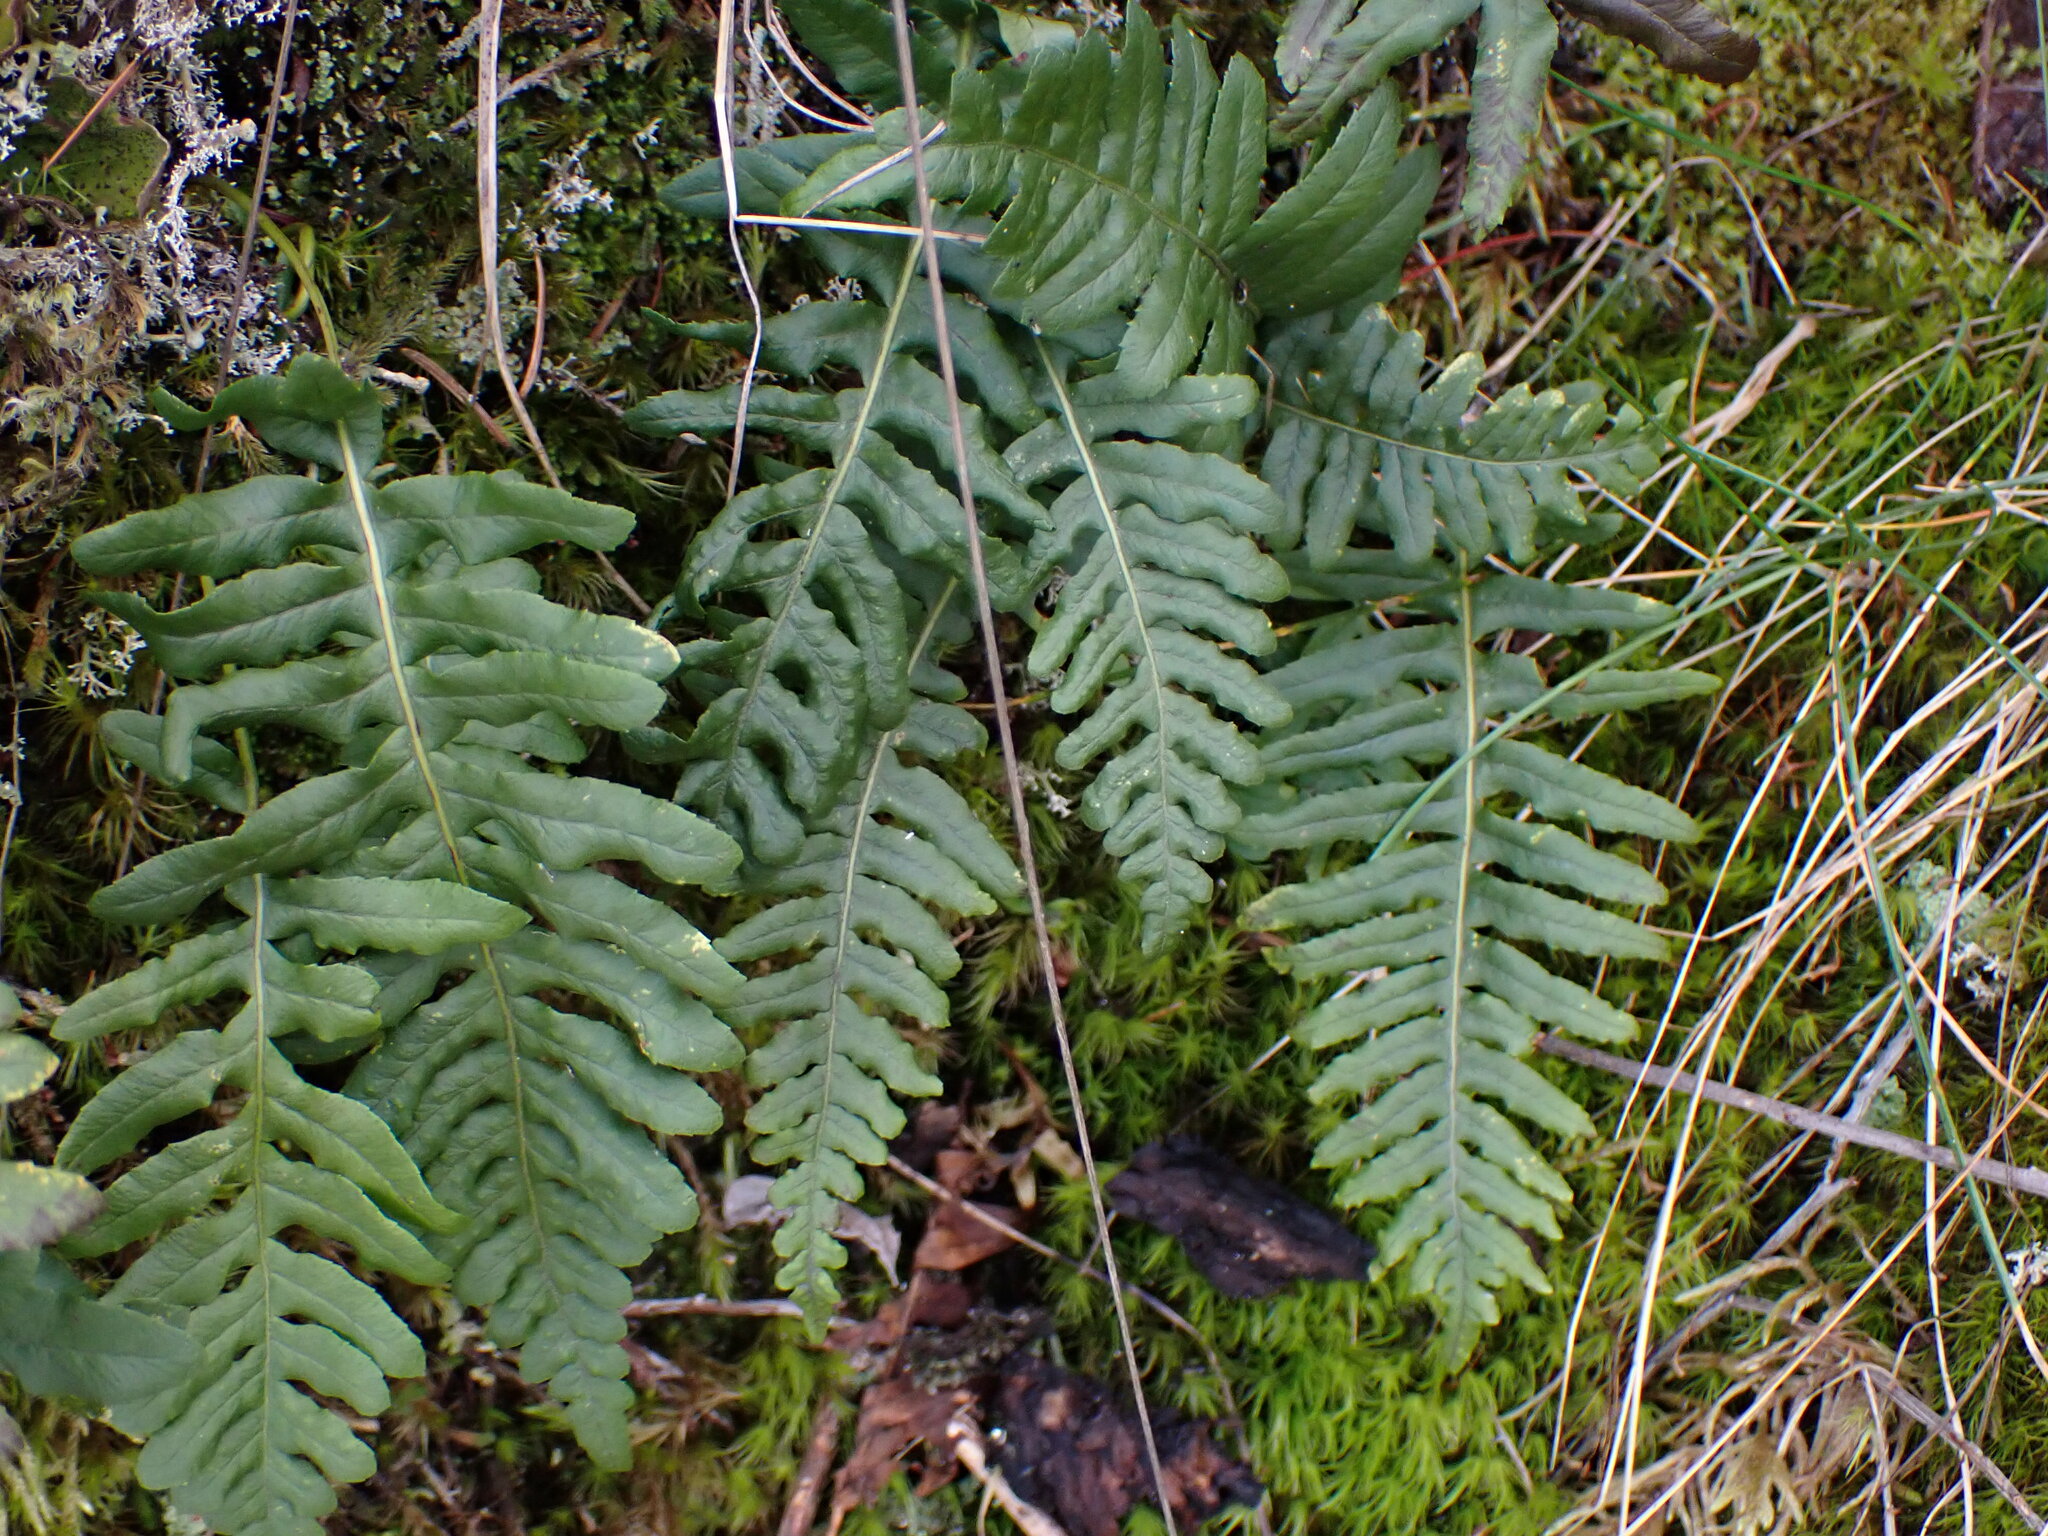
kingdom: Plantae
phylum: Tracheophyta
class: Polypodiopsida
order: Polypodiales
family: Polypodiaceae
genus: Polypodium
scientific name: Polypodium glycyrrhiza
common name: Licorice fern
